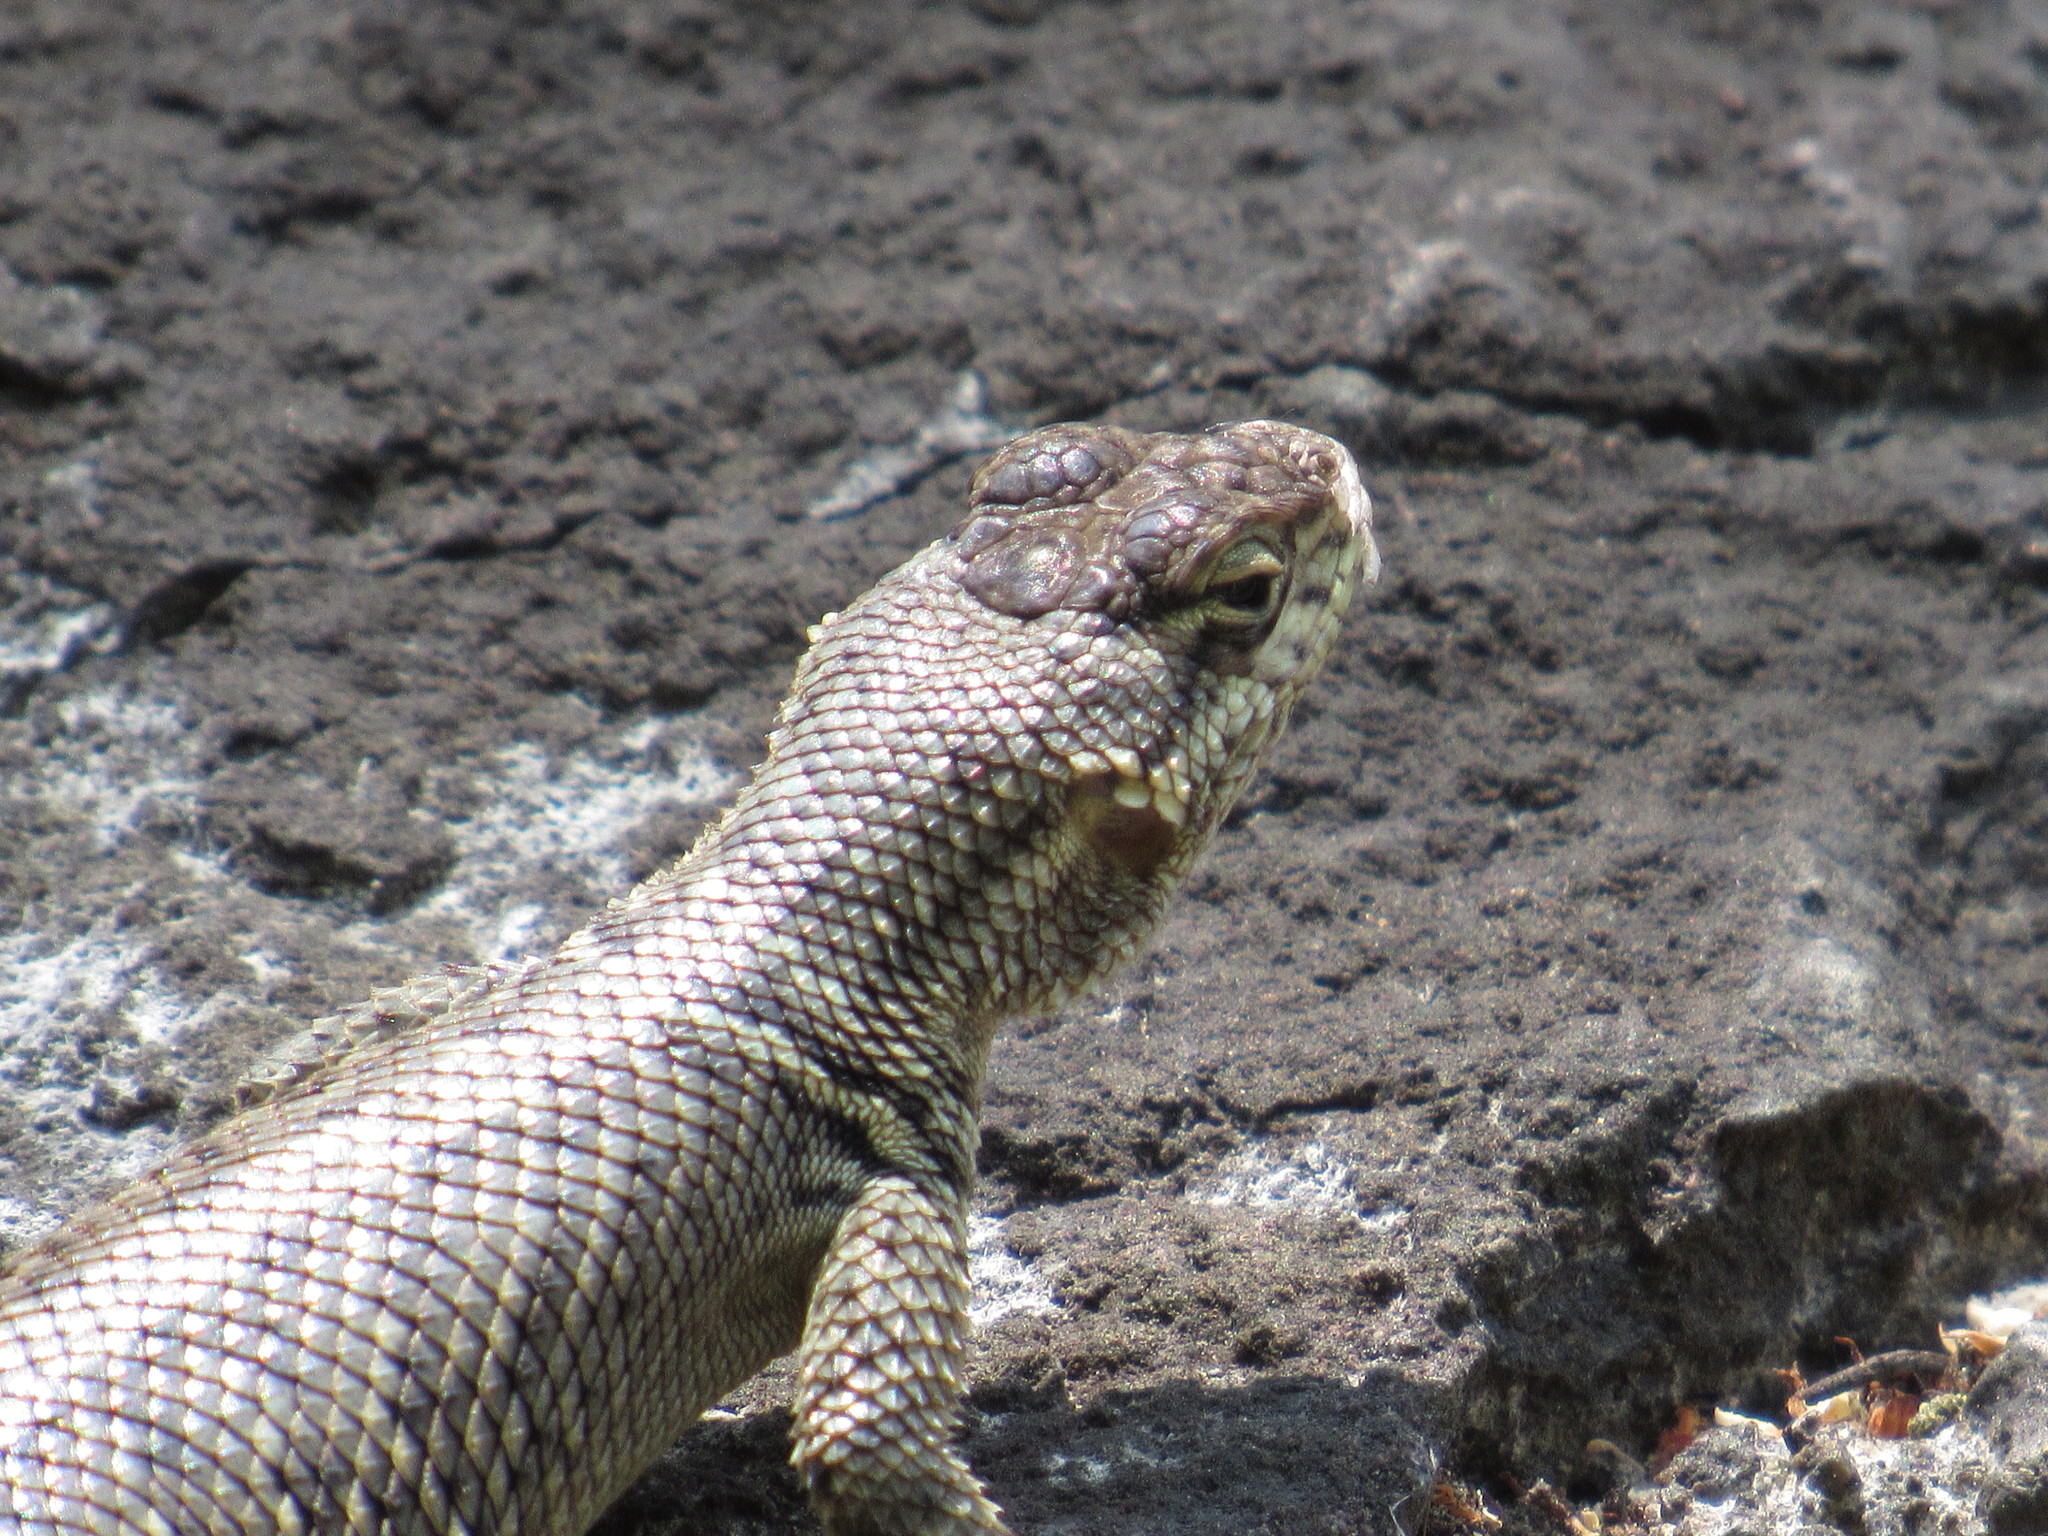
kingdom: Animalia
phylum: Chordata
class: Squamata
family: Phrynosomatidae
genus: Sceloporus
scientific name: Sceloporus torquatus
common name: Central plateau torquate lizard [melanogaster]
